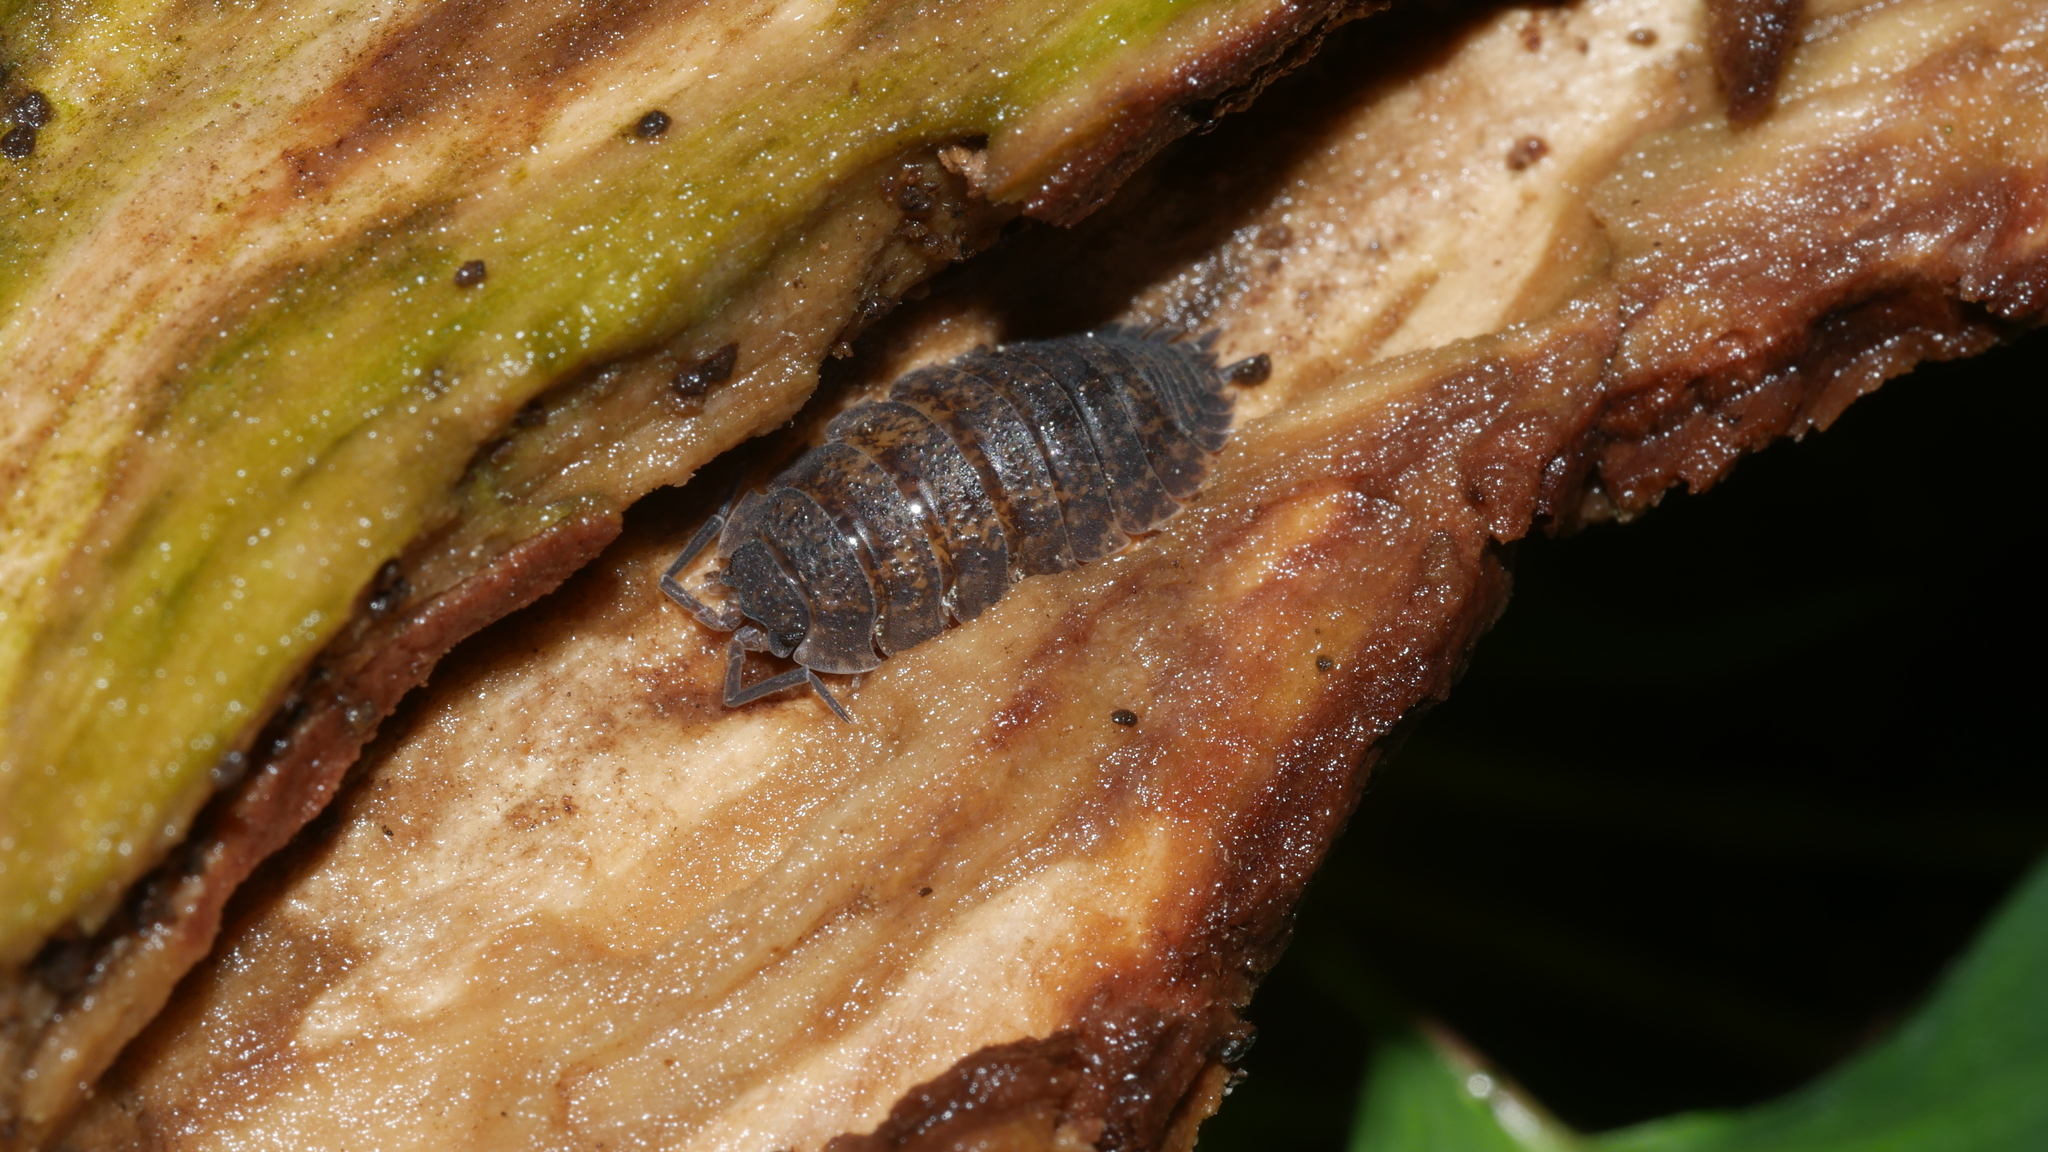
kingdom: Animalia
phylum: Arthropoda
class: Malacostraca
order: Isopoda
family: Porcellionidae
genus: Porcellio
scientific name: Porcellio scaber
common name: Common rough woodlouse
